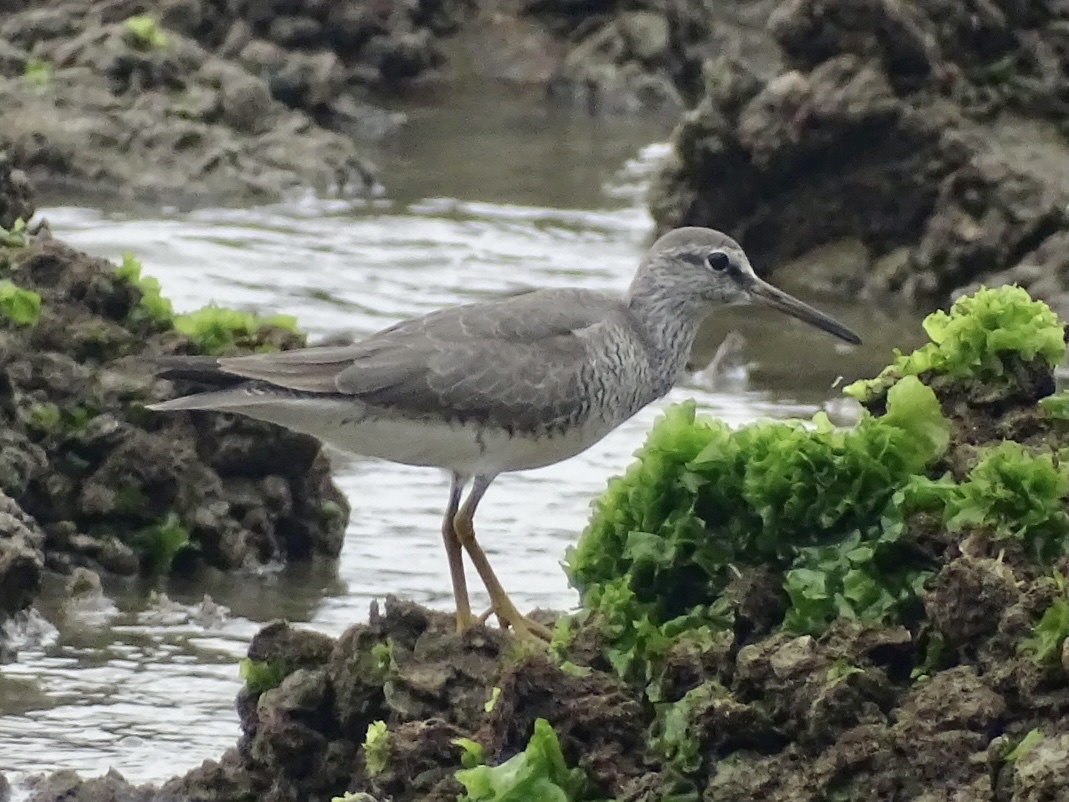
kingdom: Animalia
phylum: Chordata
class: Aves
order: Charadriiformes
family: Scolopacidae
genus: Tringa
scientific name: Tringa brevipes
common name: Grey-tailed tattler
